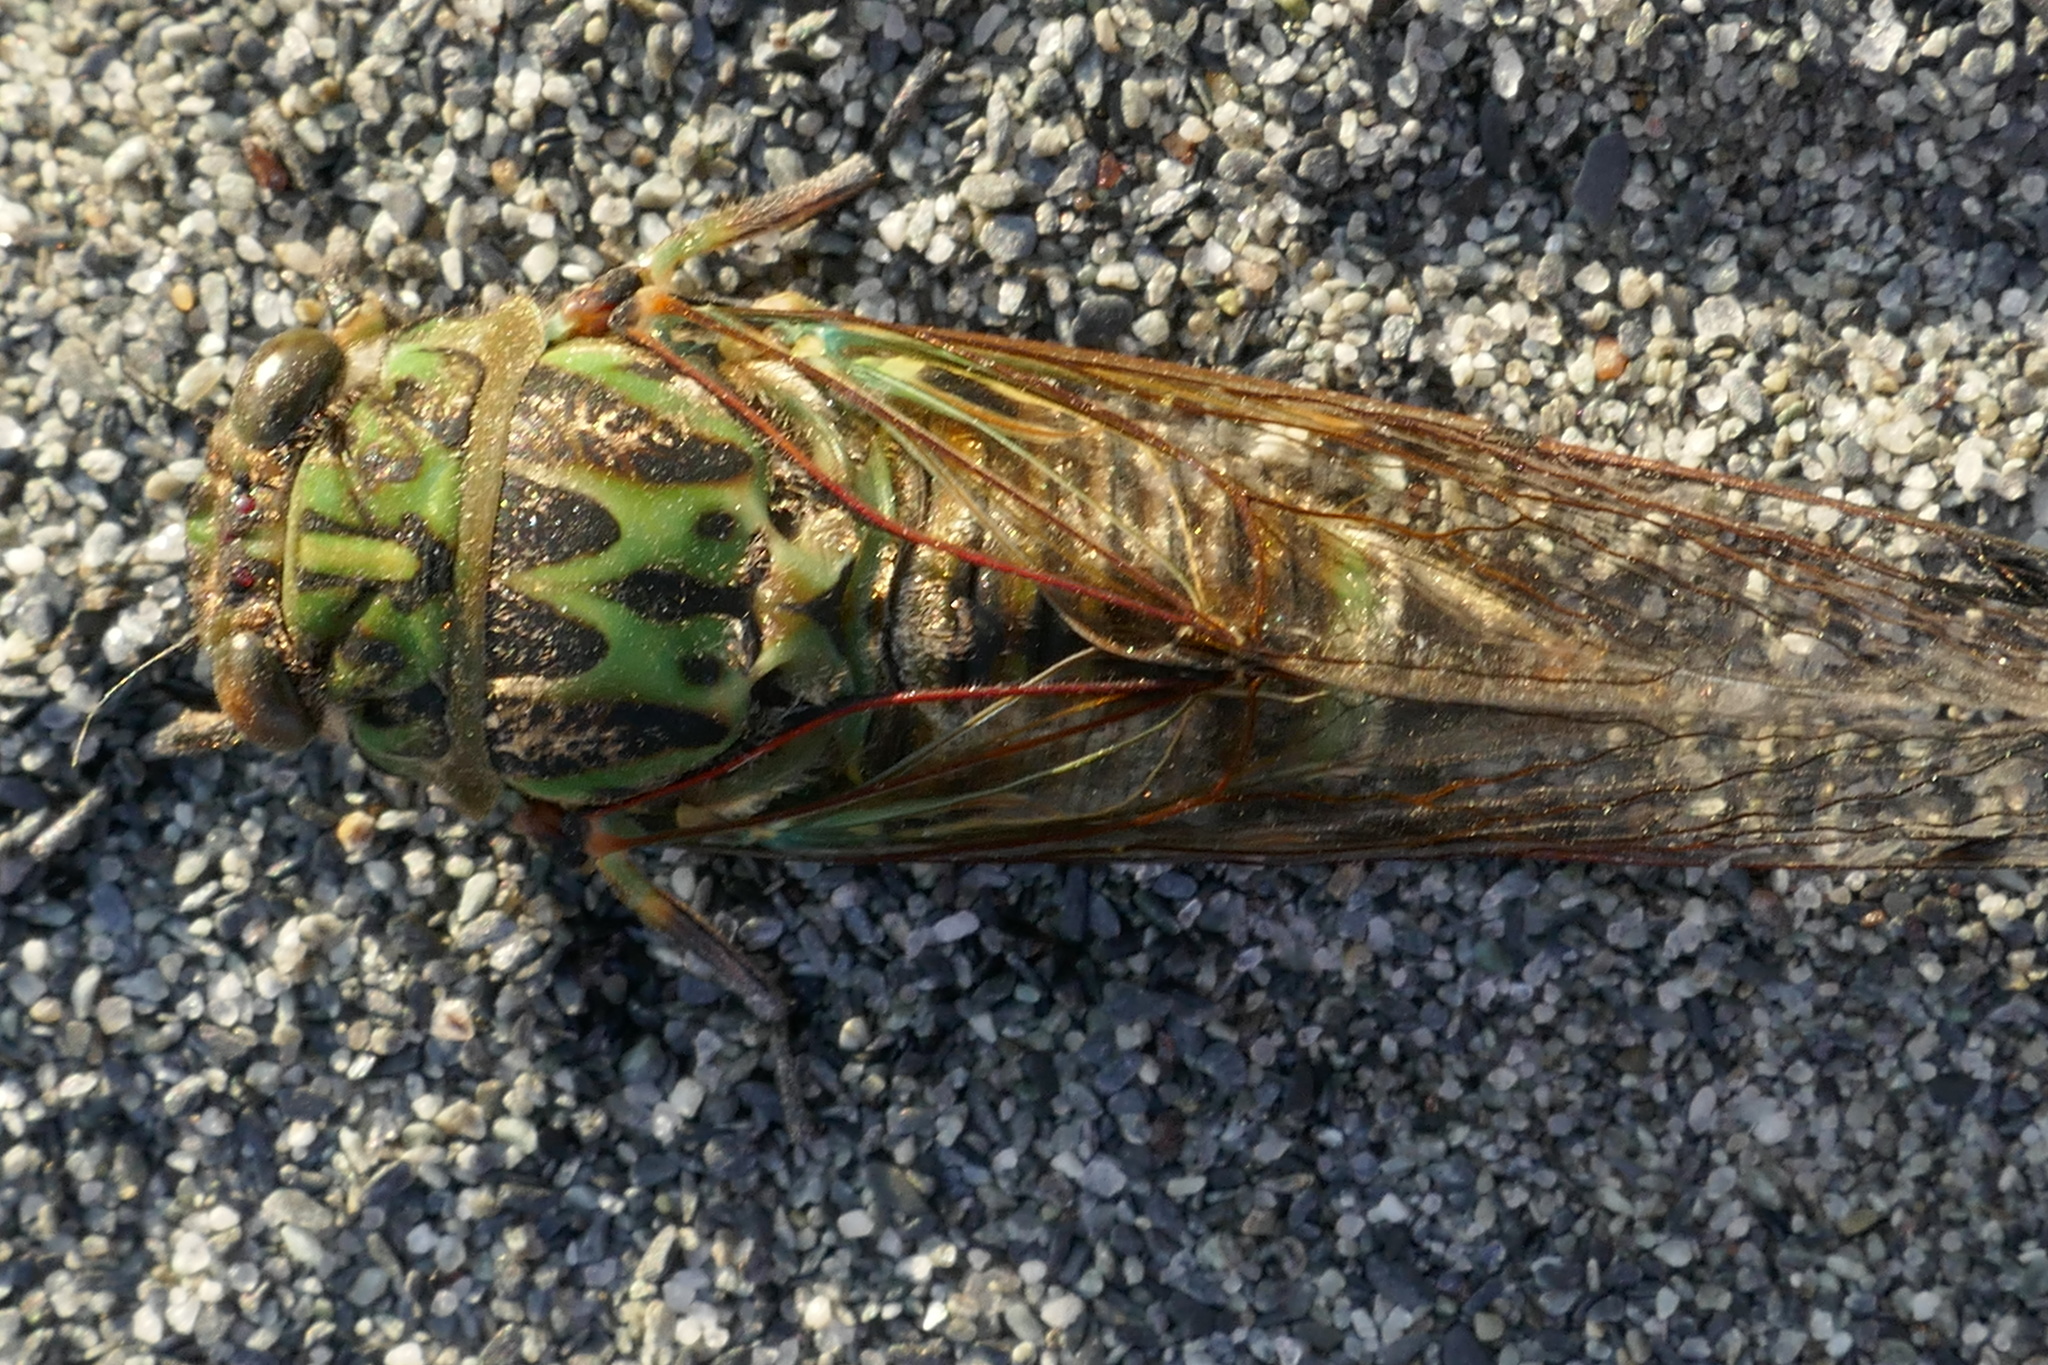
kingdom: Animalia
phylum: Arthropoda
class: Insecta
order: Hemiptera
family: Cicadidae
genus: Amphipsalta
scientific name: Amphipsalta zelandica
